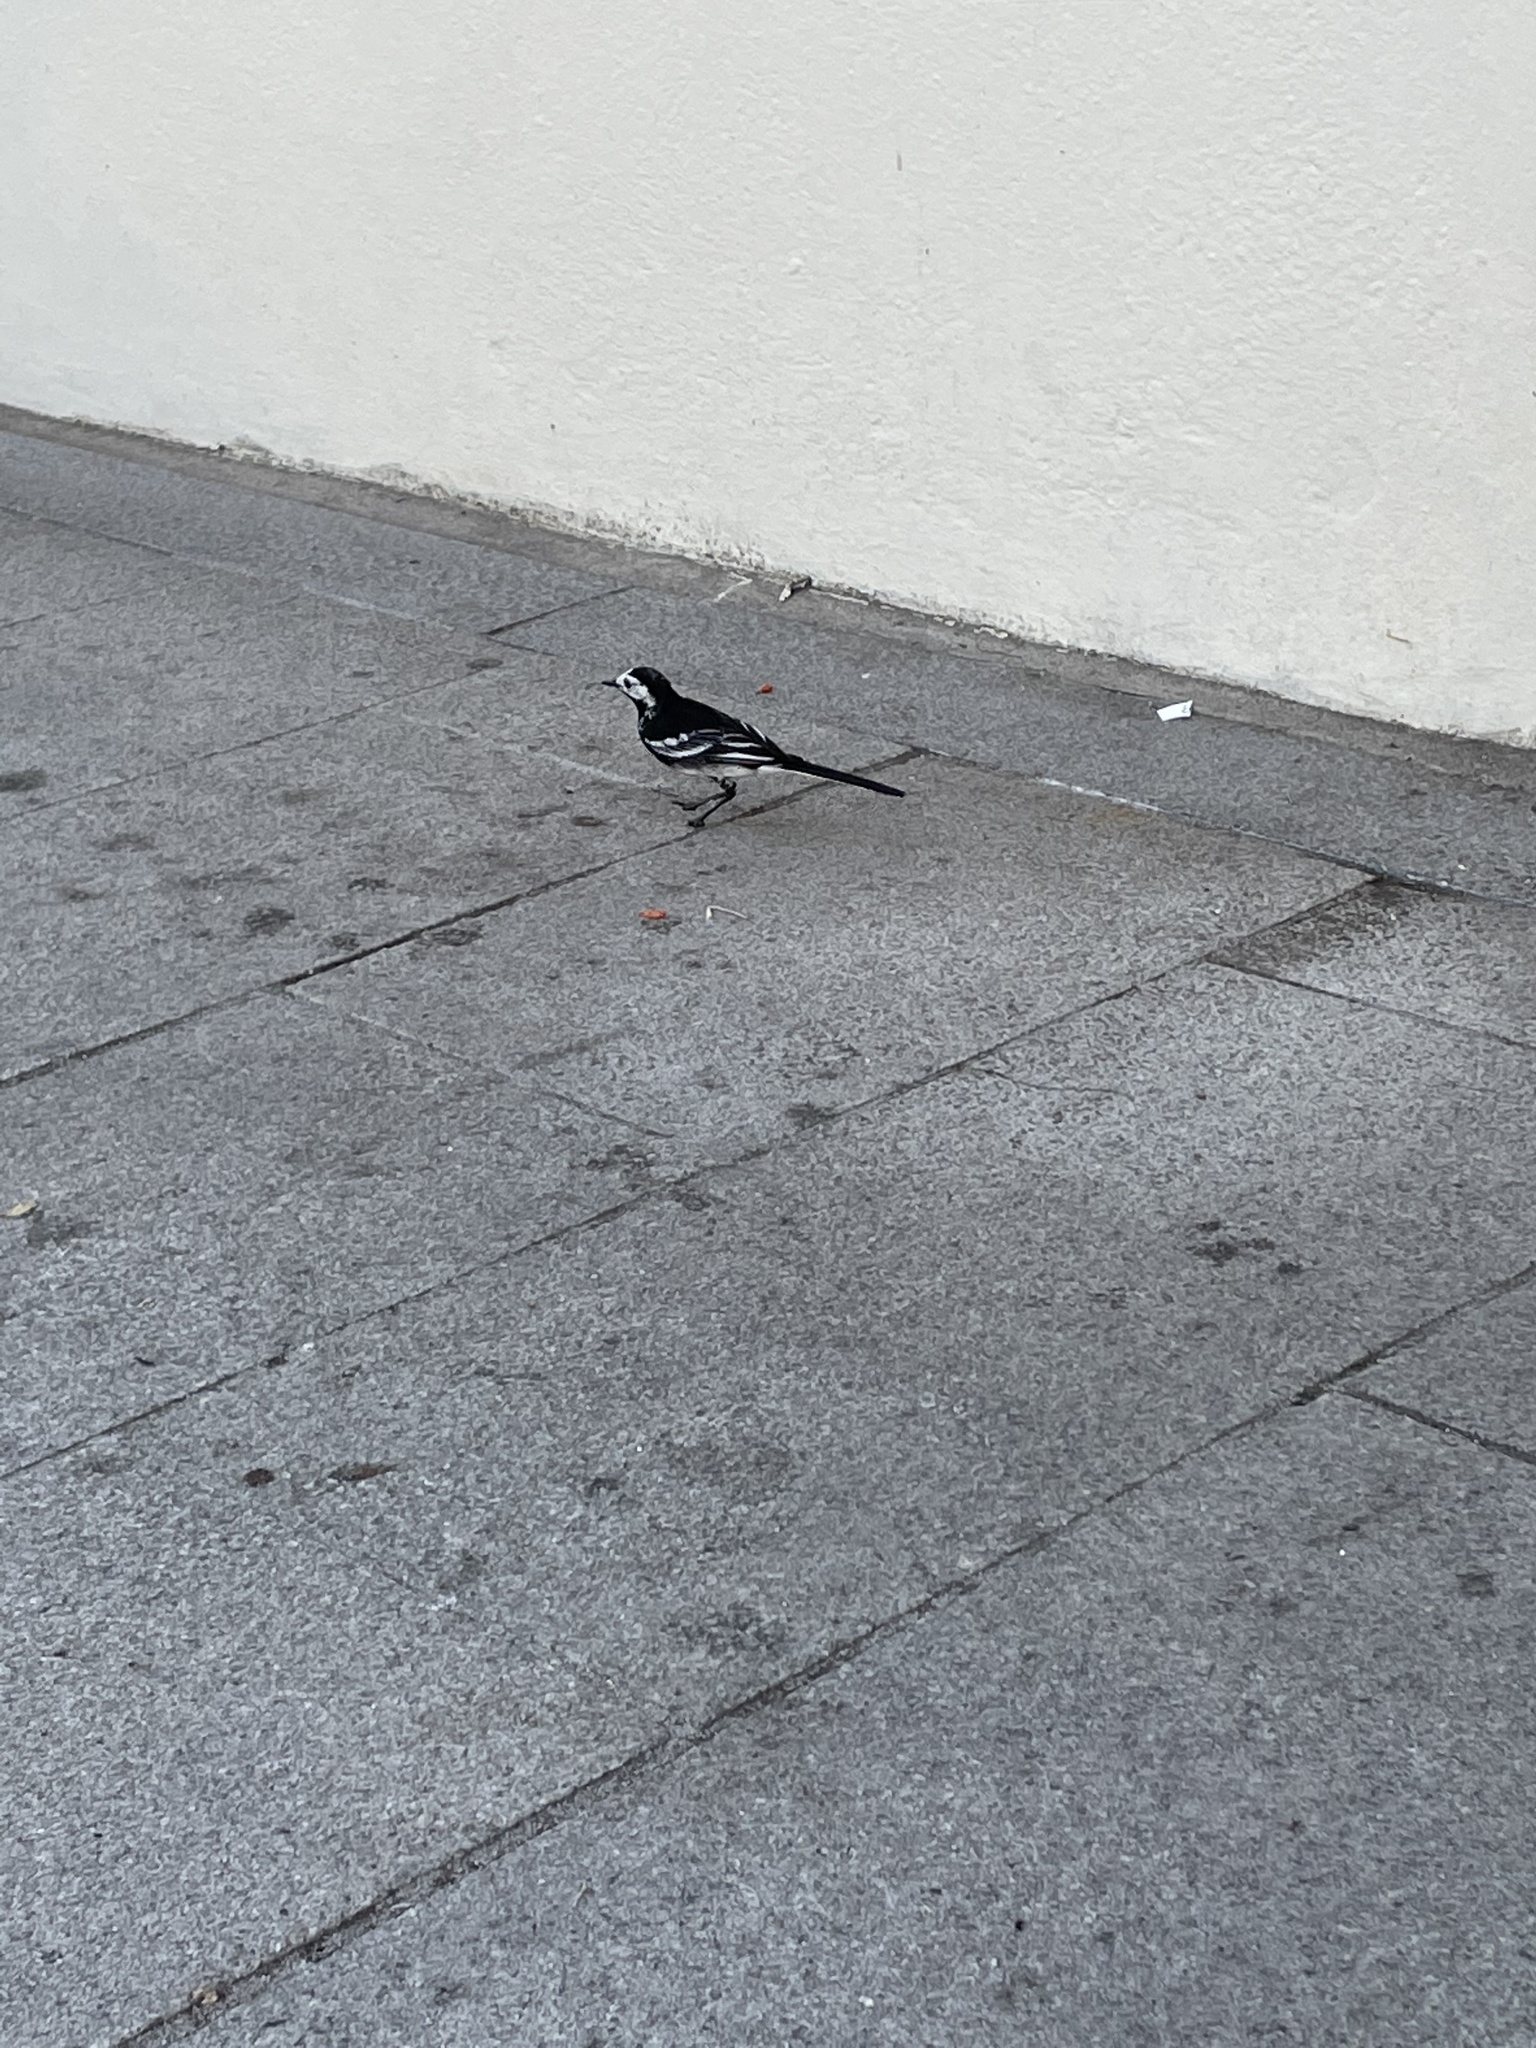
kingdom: Animalia
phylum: Chordata
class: Aves
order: Passeriformes
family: Motacillidae
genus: Motacilla
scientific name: Motacilla alba
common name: White wagtail
